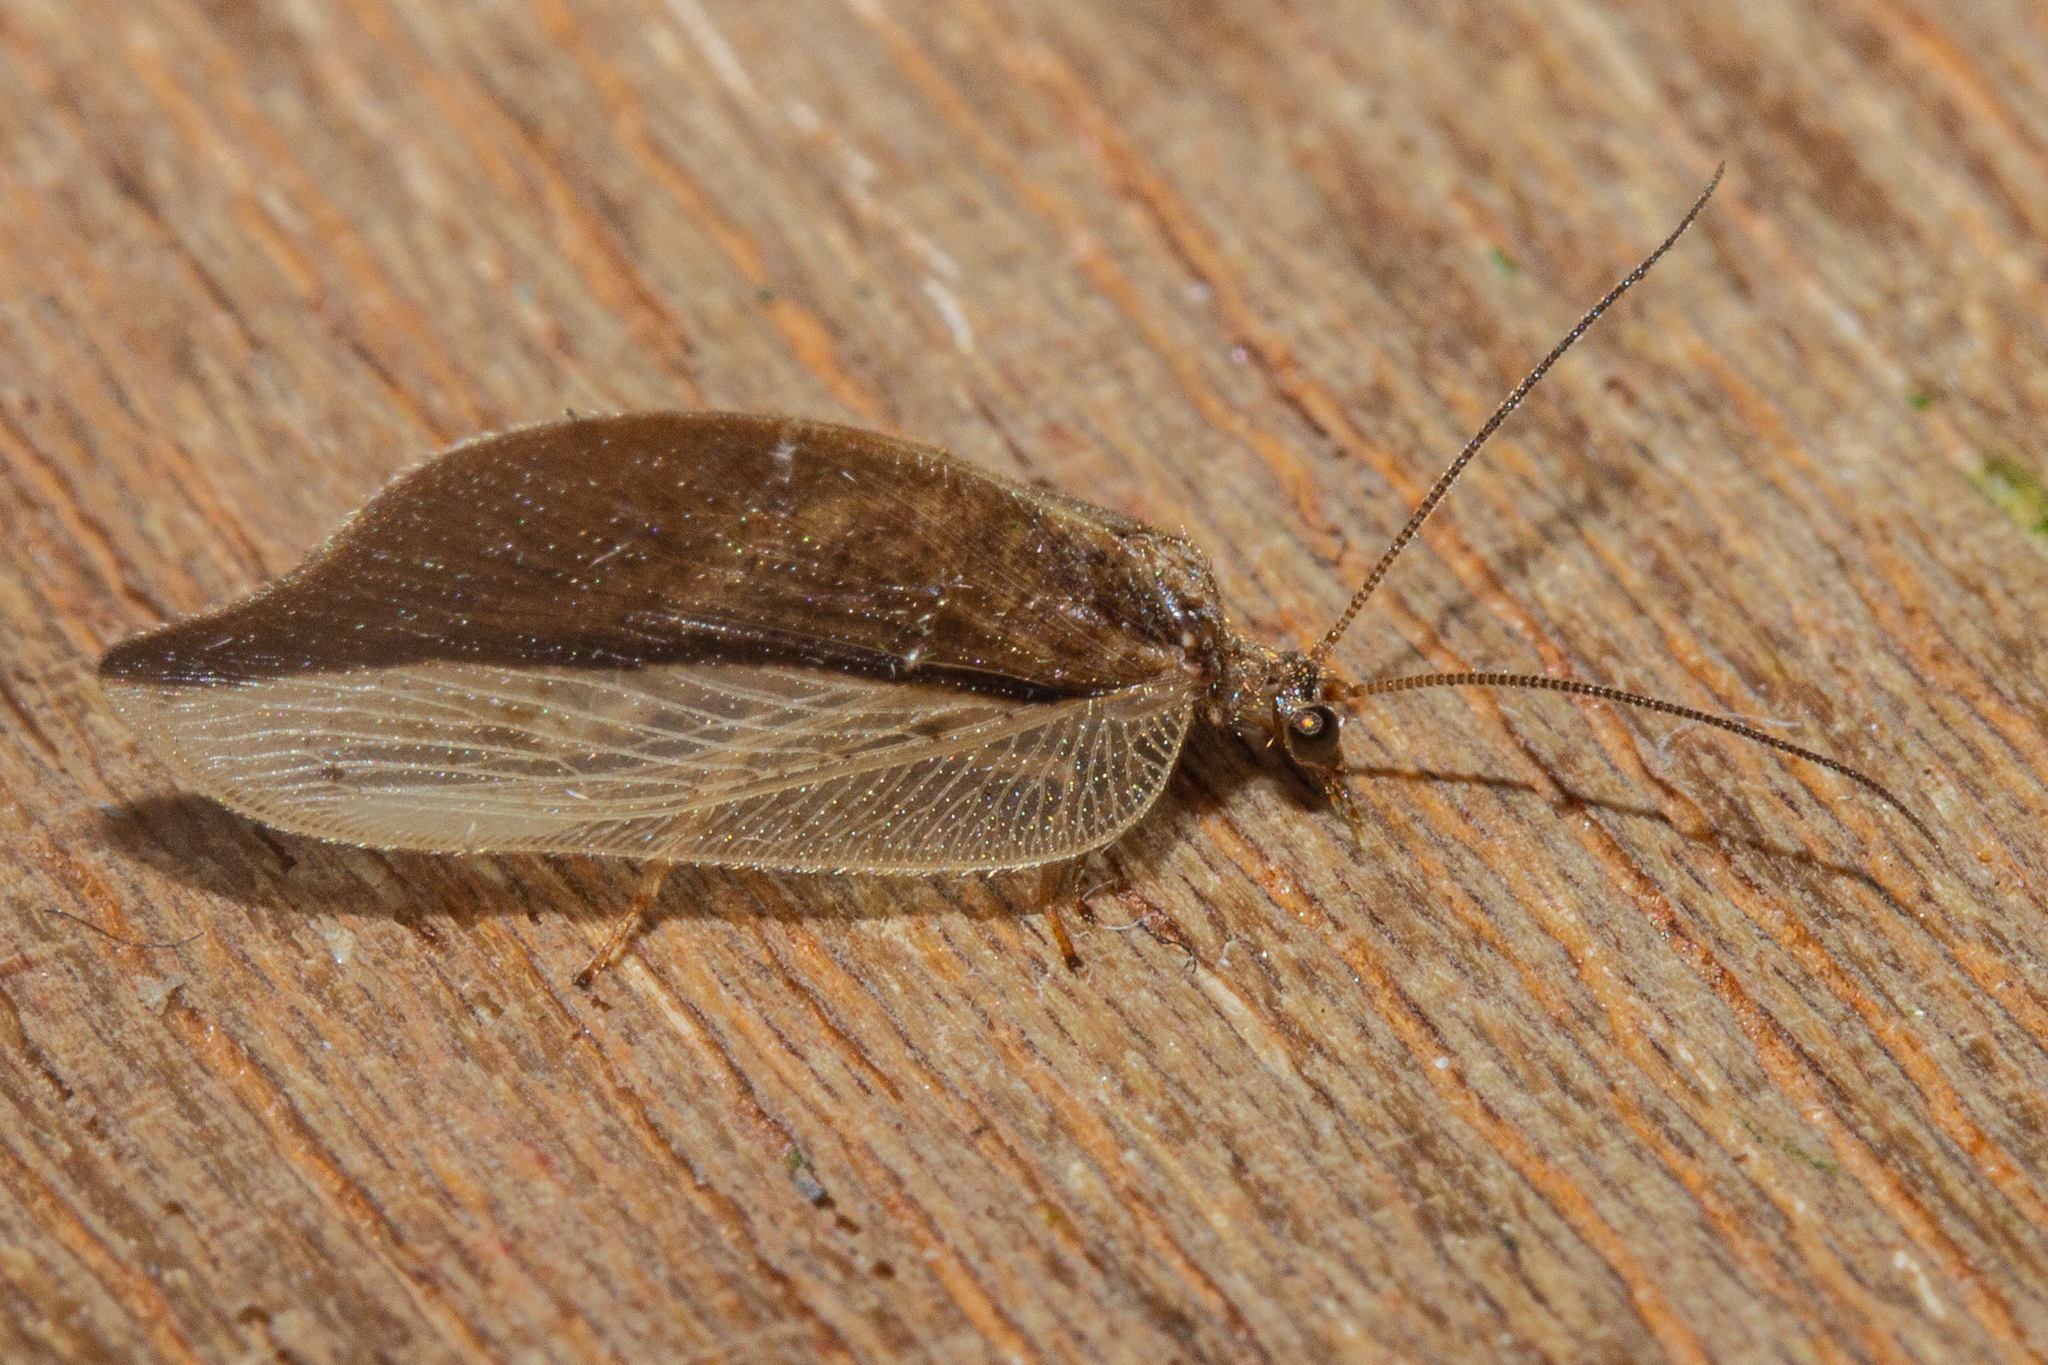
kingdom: Animalia
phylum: Arthropoda
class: Insecta
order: Neuroptera
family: Hemerobiidae
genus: Drepanacra
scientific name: Drepanacra binocula
